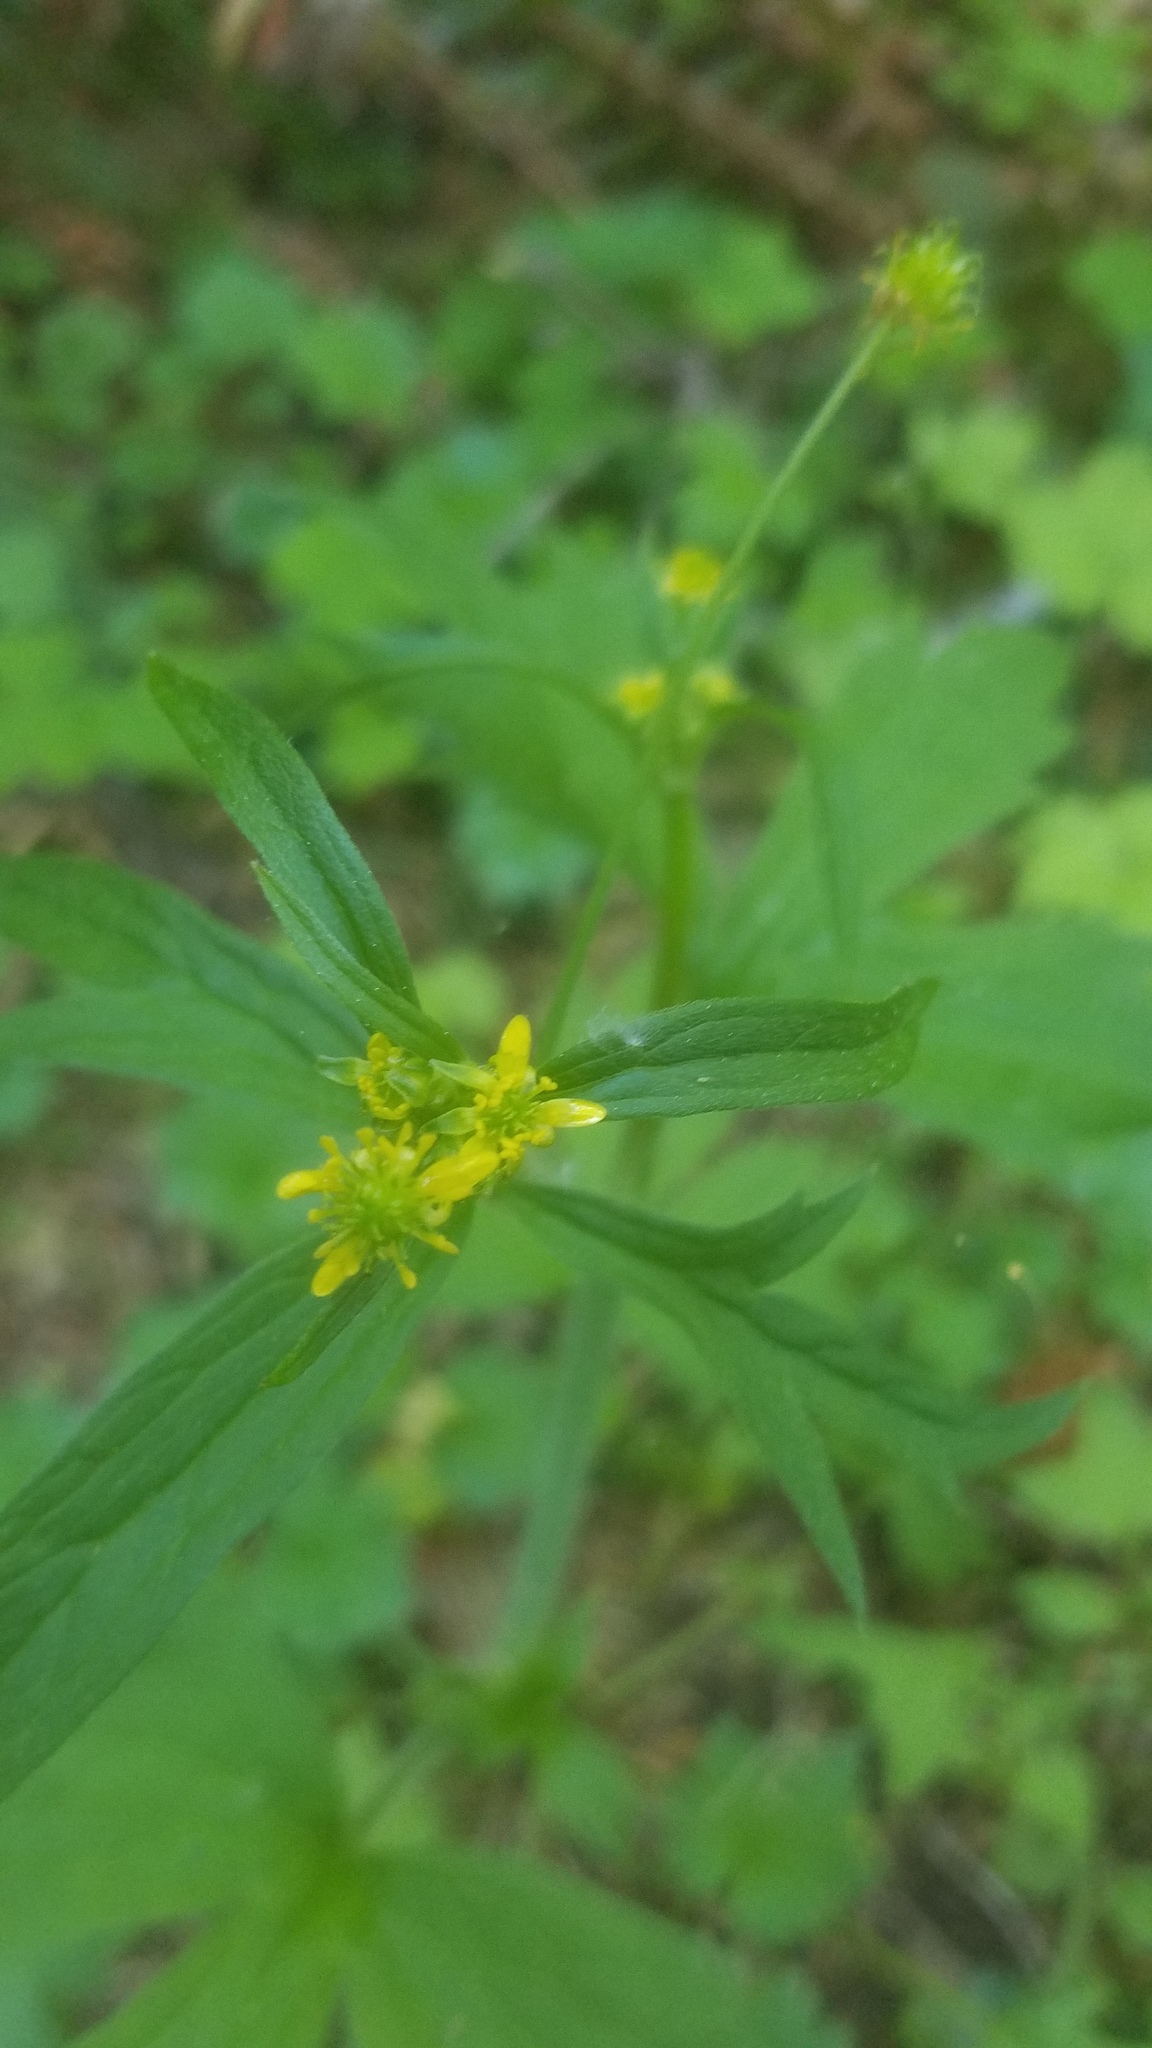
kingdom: Plantae
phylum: Tracheophyta
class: Magnoliopsida
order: Ranunculales
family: Ranunculaceae
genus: Ranunculus
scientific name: Ranunculus uncinatus
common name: Little buttercup
